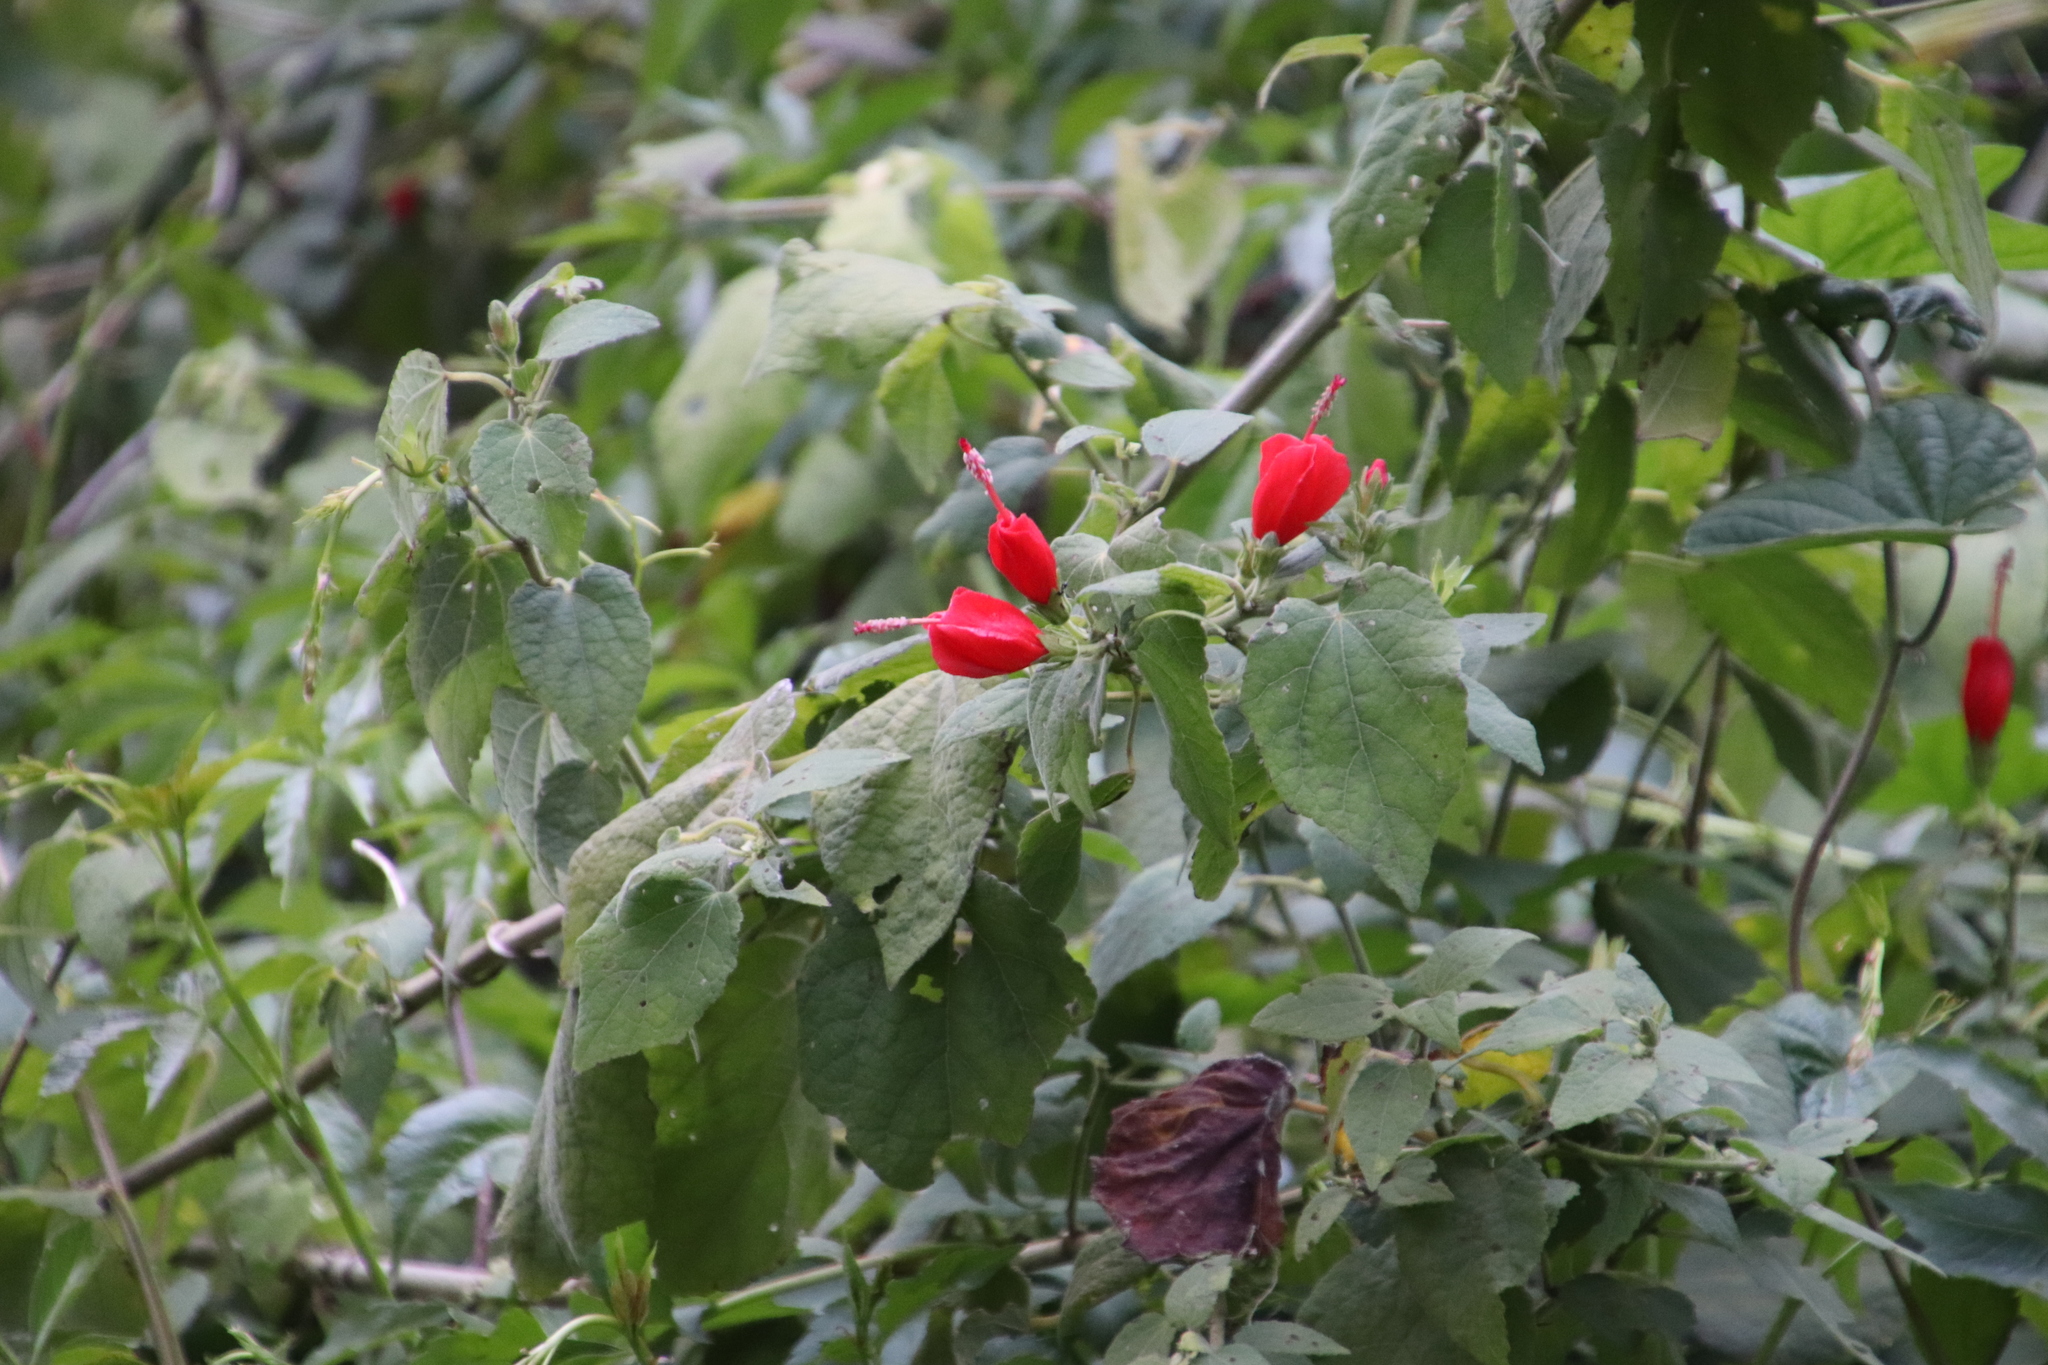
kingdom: Plantae
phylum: Tracheophyta
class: Magnoliopsida
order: Malvales
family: Malvaceae
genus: Malvaviscus
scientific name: Malvaviscus arboreus
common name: Wax mallow
